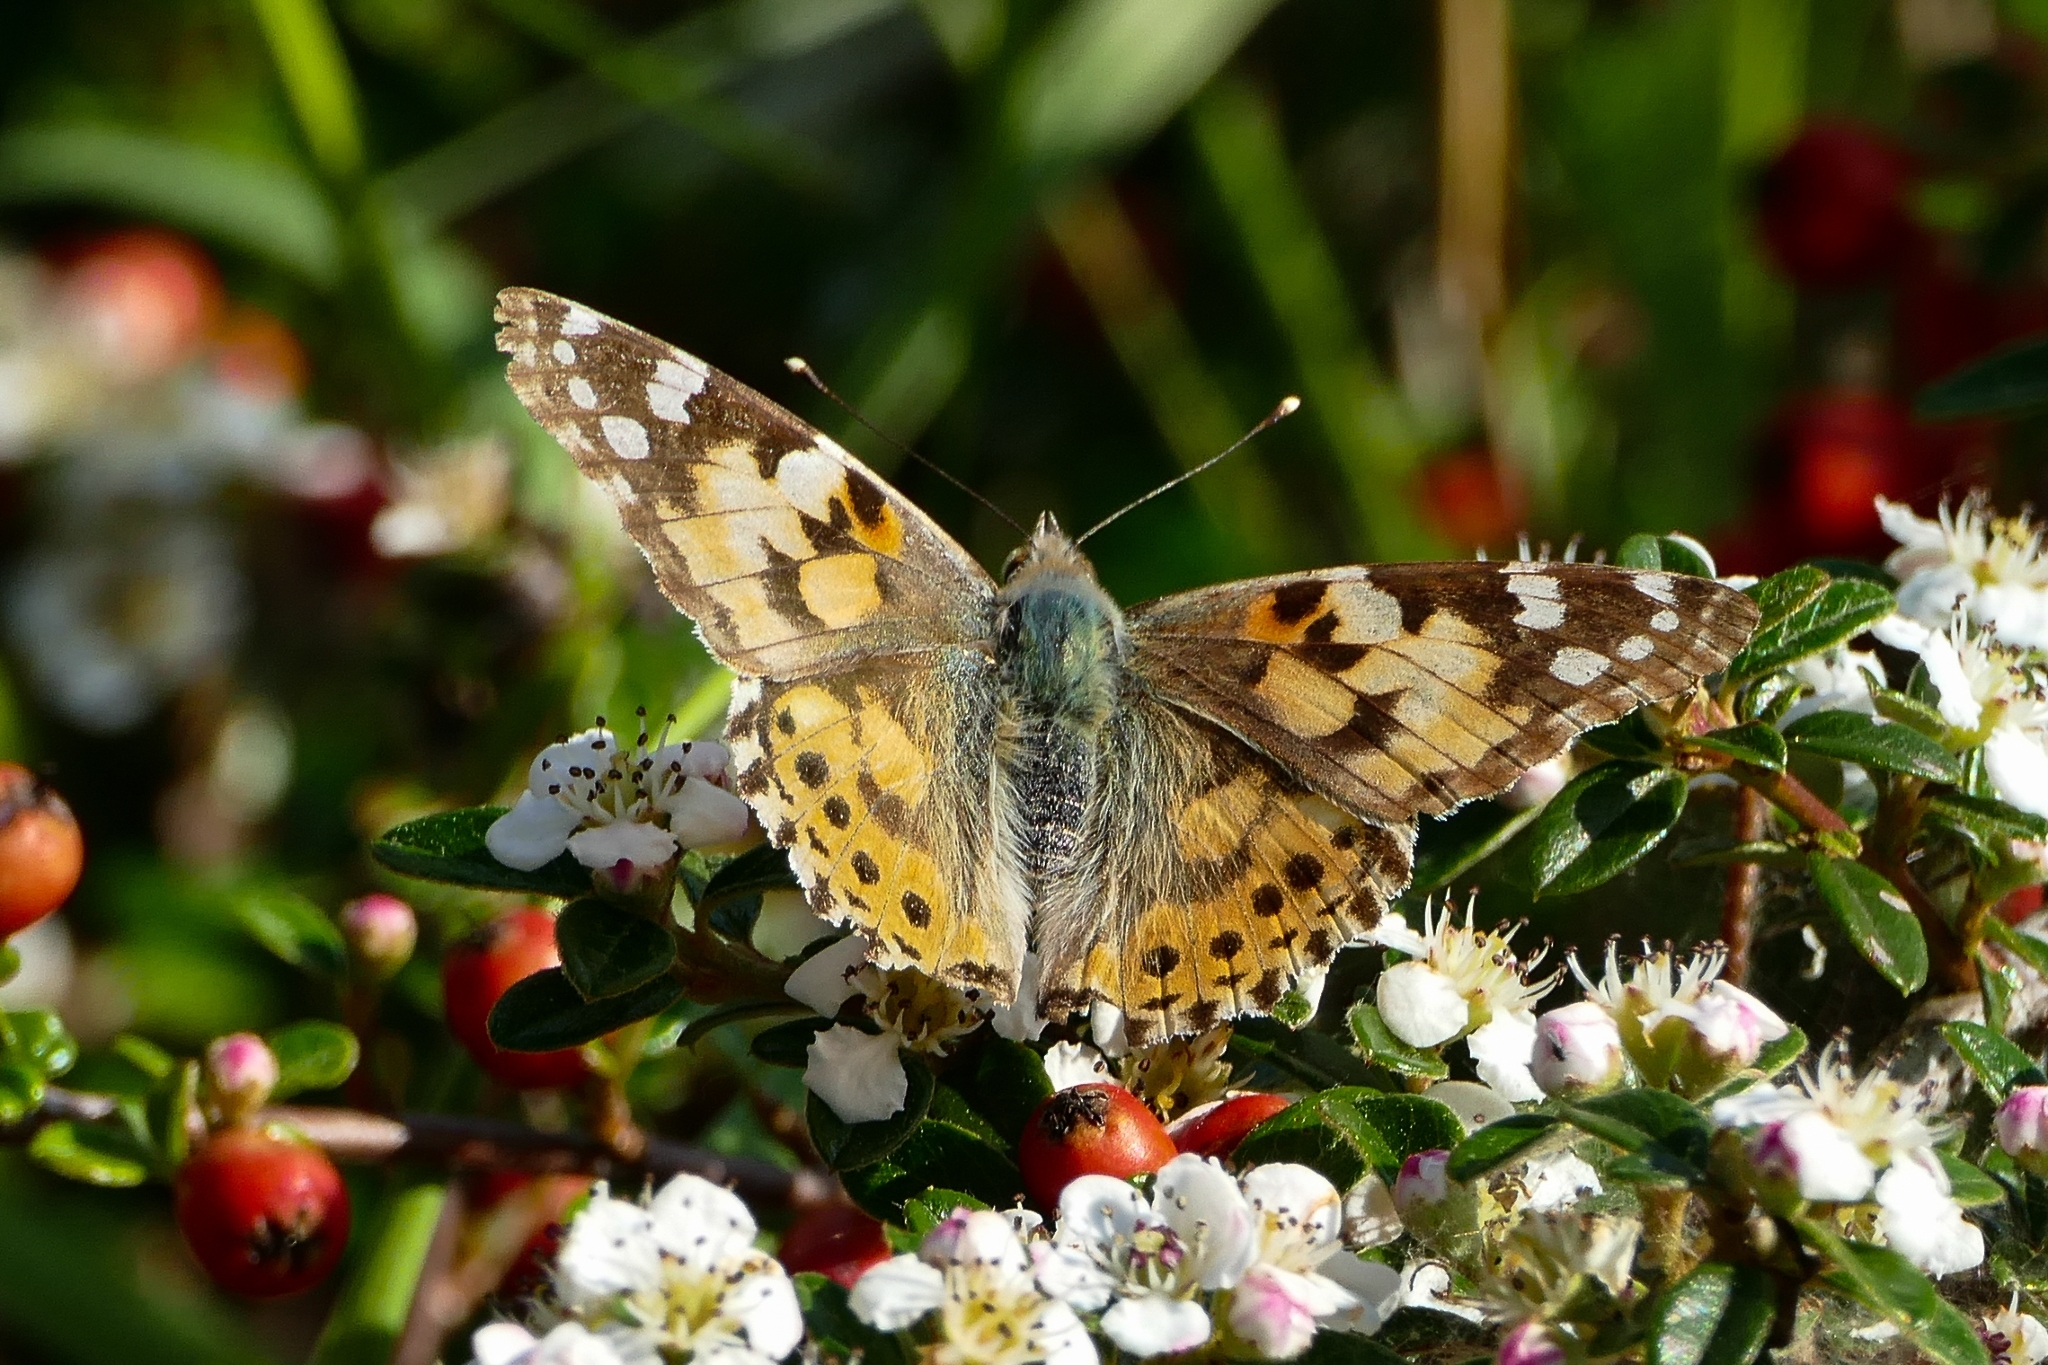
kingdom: Animalia
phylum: Arthropoda
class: Insecta
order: Lepidoptera
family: Nymphalidae
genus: Vanessa
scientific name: Vanessa cardui
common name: Painted lady
